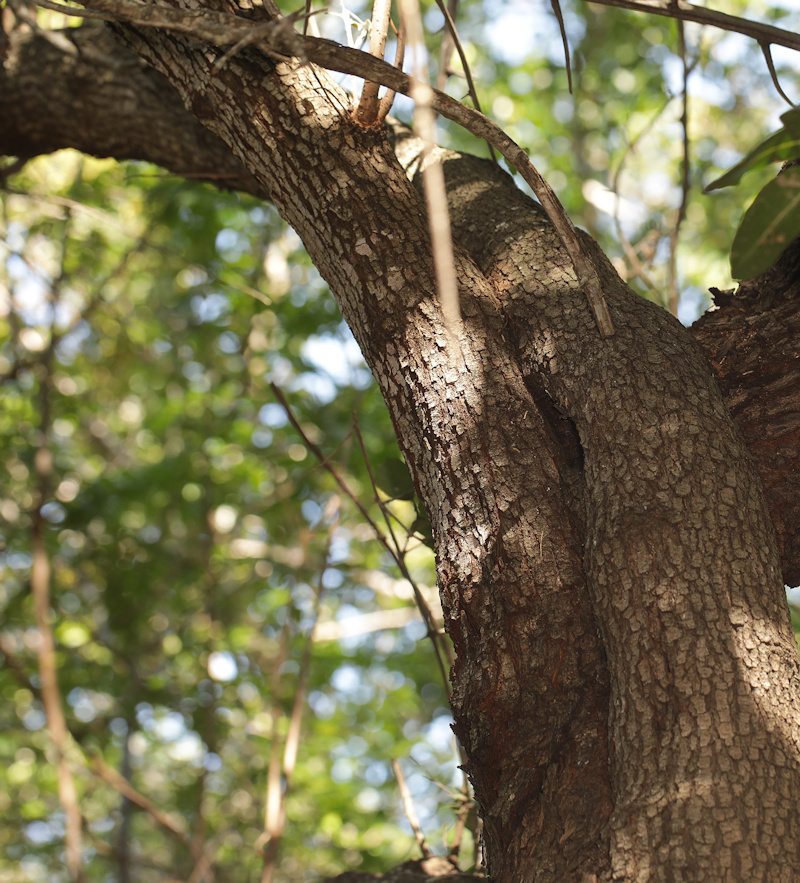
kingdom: Plantae
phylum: Tracheophyta
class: Magnoliopsida
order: Sapindales
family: Anacardiaceae
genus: Searsia
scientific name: Searsia pyroides
